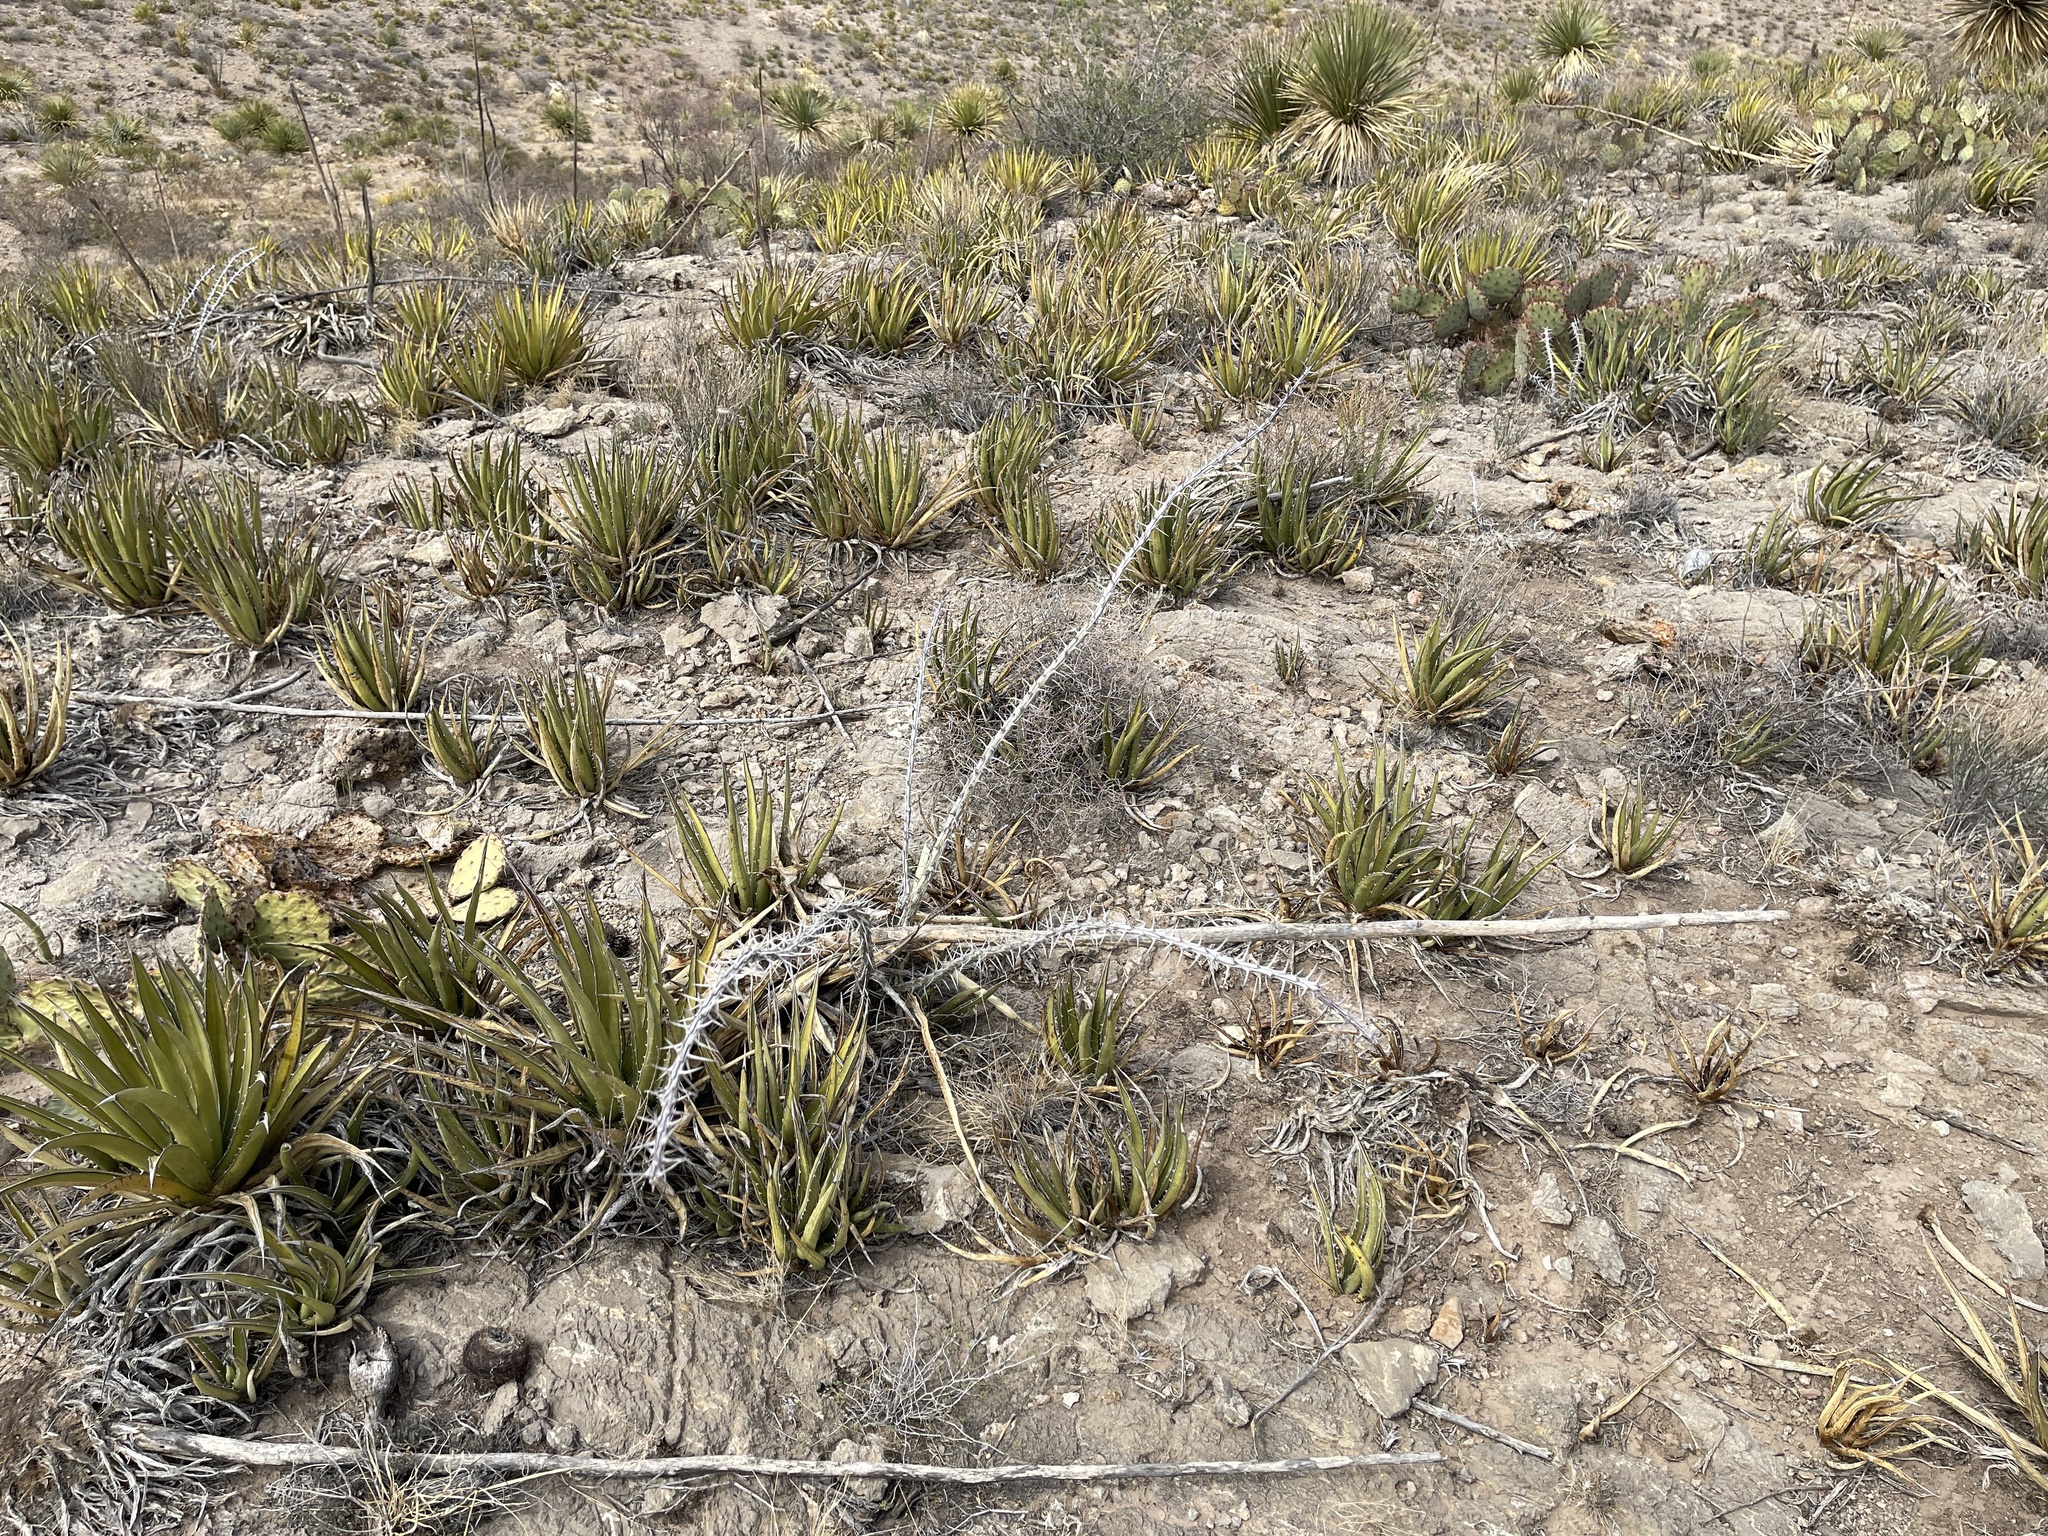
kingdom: Plantae
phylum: Tracheophyta
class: Liliopsida
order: Asparagales
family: Asparagaceae
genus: Agave
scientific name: Agave lechuguilla
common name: Lecheguilla agave
